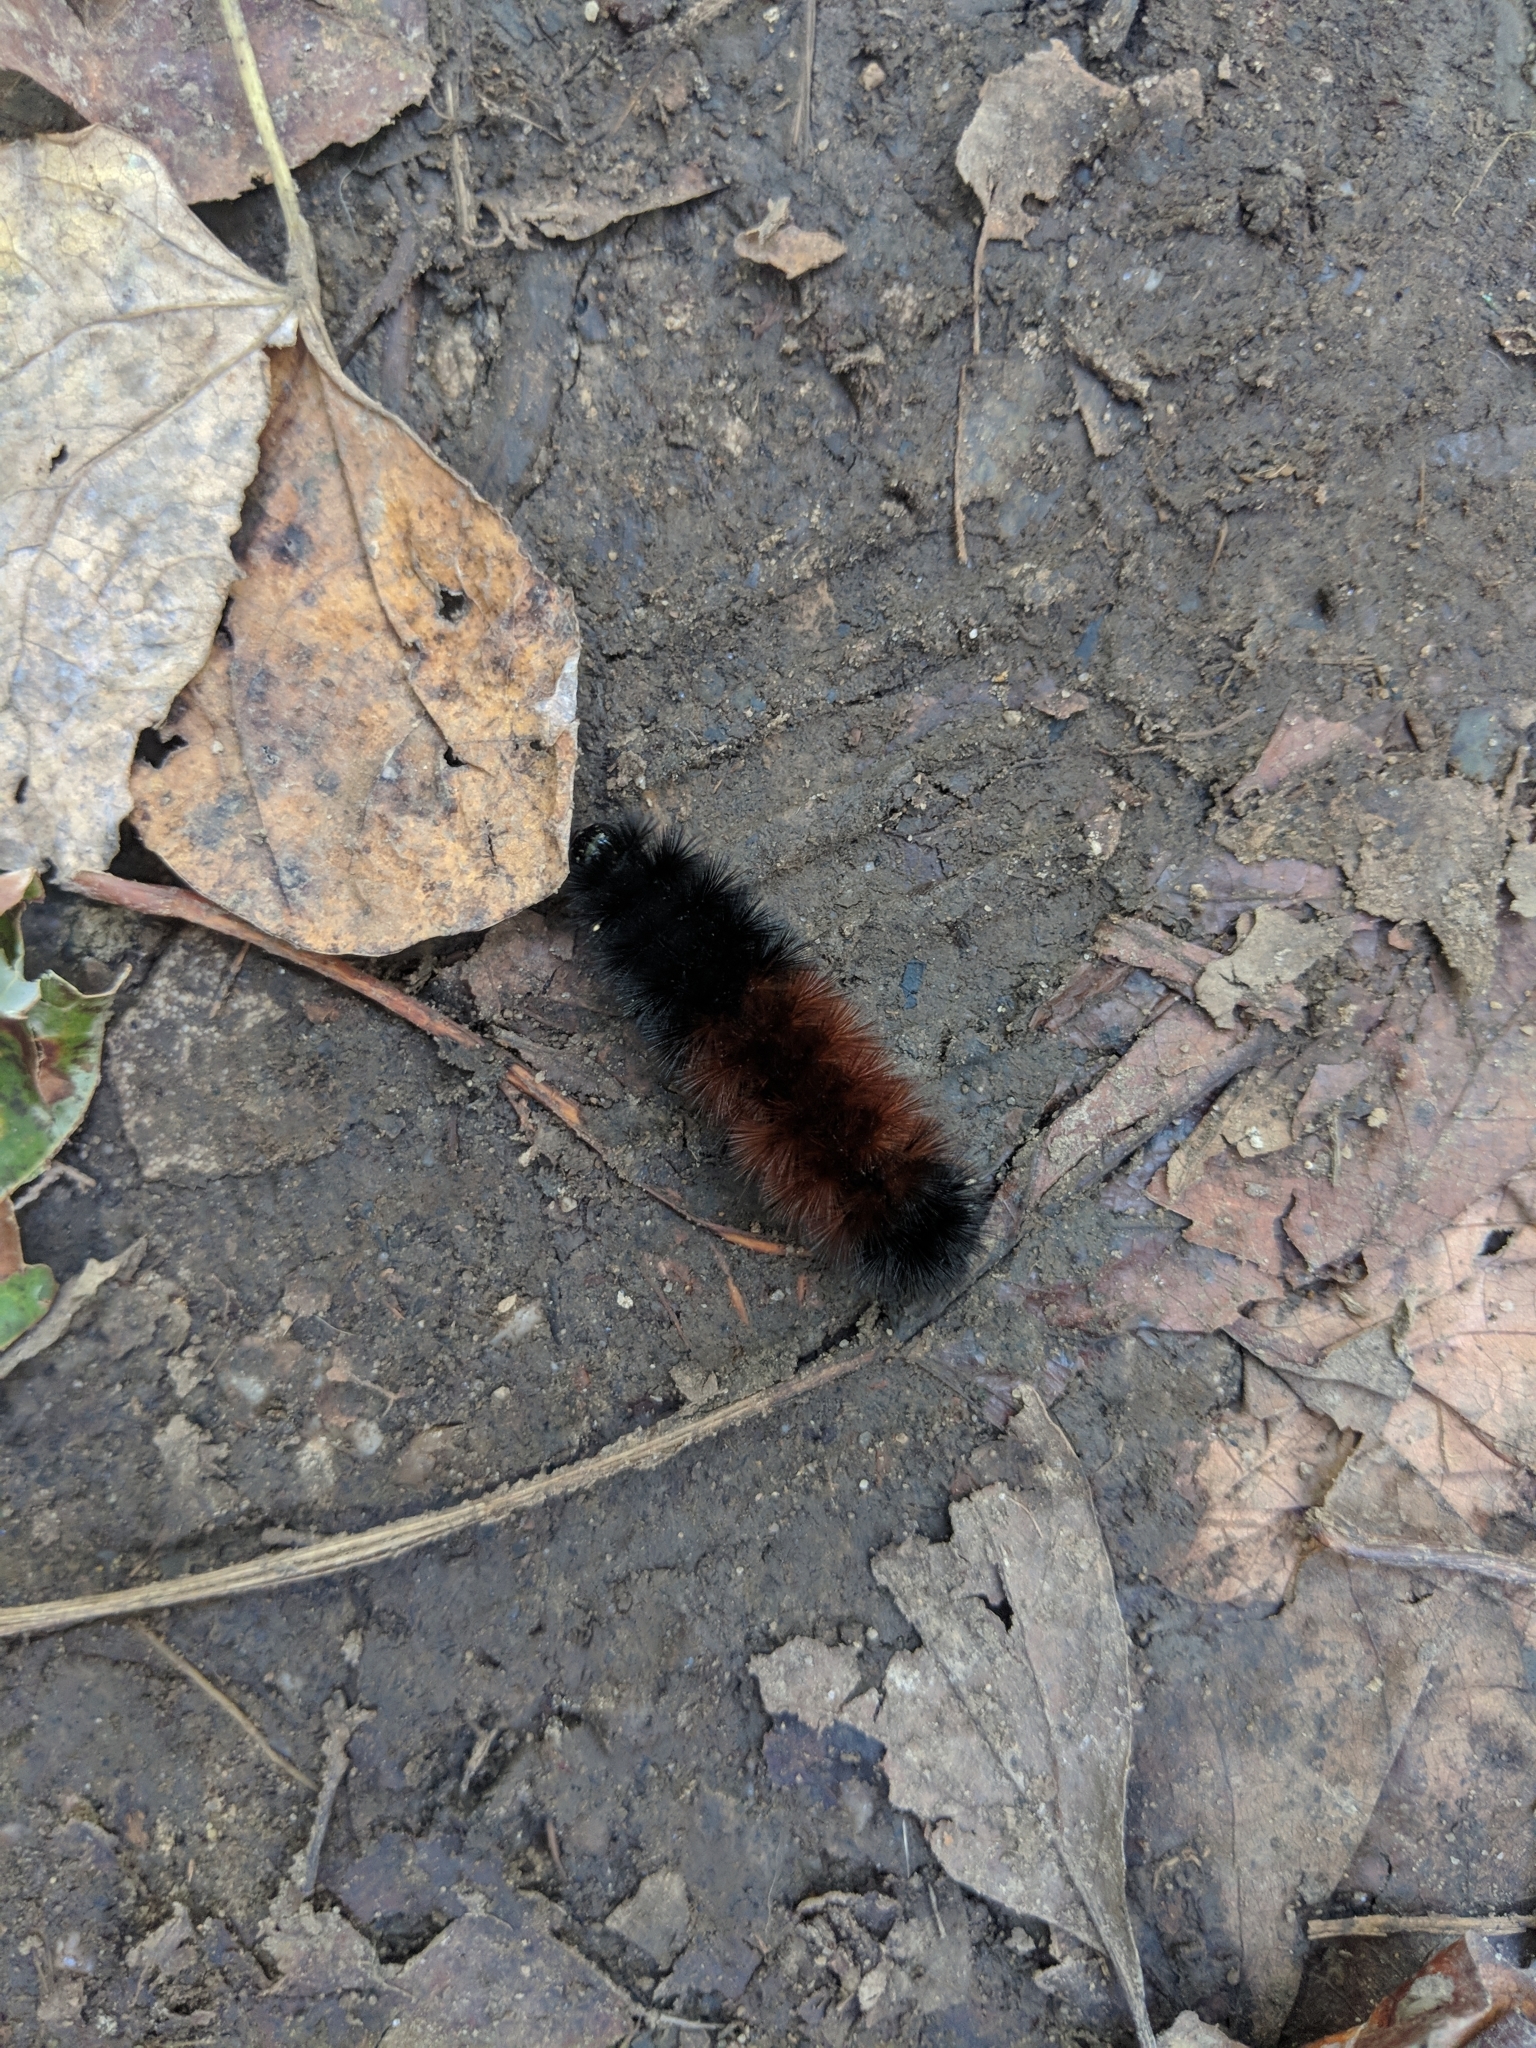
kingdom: Animalia
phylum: Arthropoda
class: Insecta
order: Lepidoptera
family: Erebidae
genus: Pyrrharctia
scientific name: Pyrrharctia isabella
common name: Isabella tiger moth
